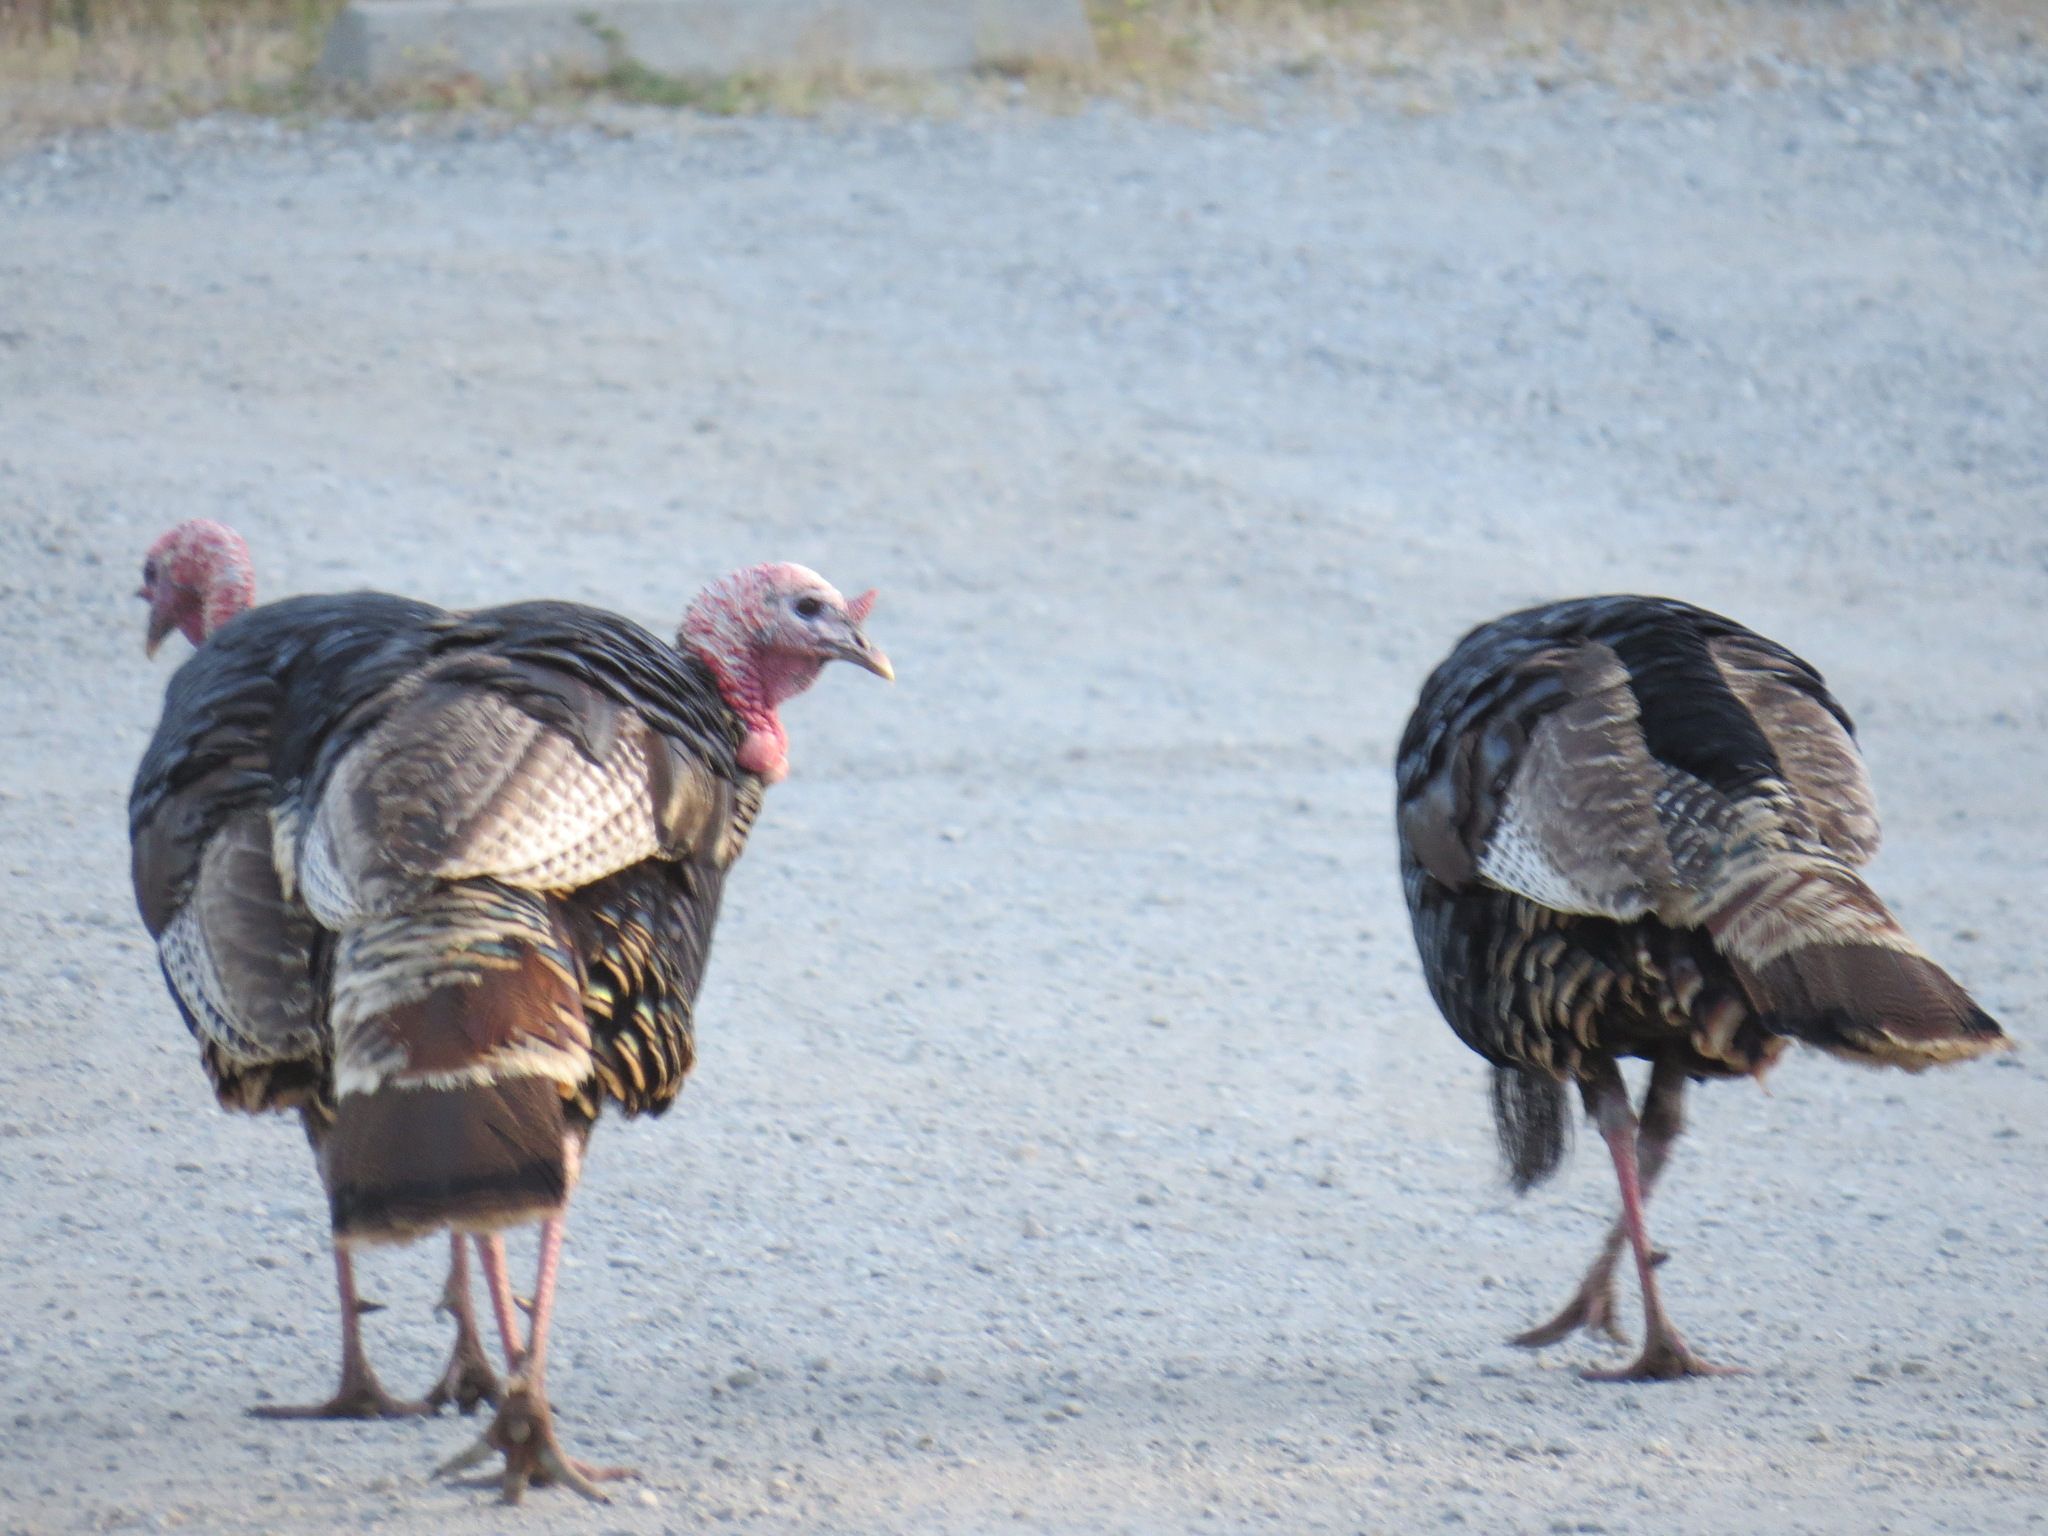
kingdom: Animalia
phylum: Chordata
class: Aves
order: Galliformes
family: Phasianidae
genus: Meleagris
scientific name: Meleagris gallopavo
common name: Wild turkey
